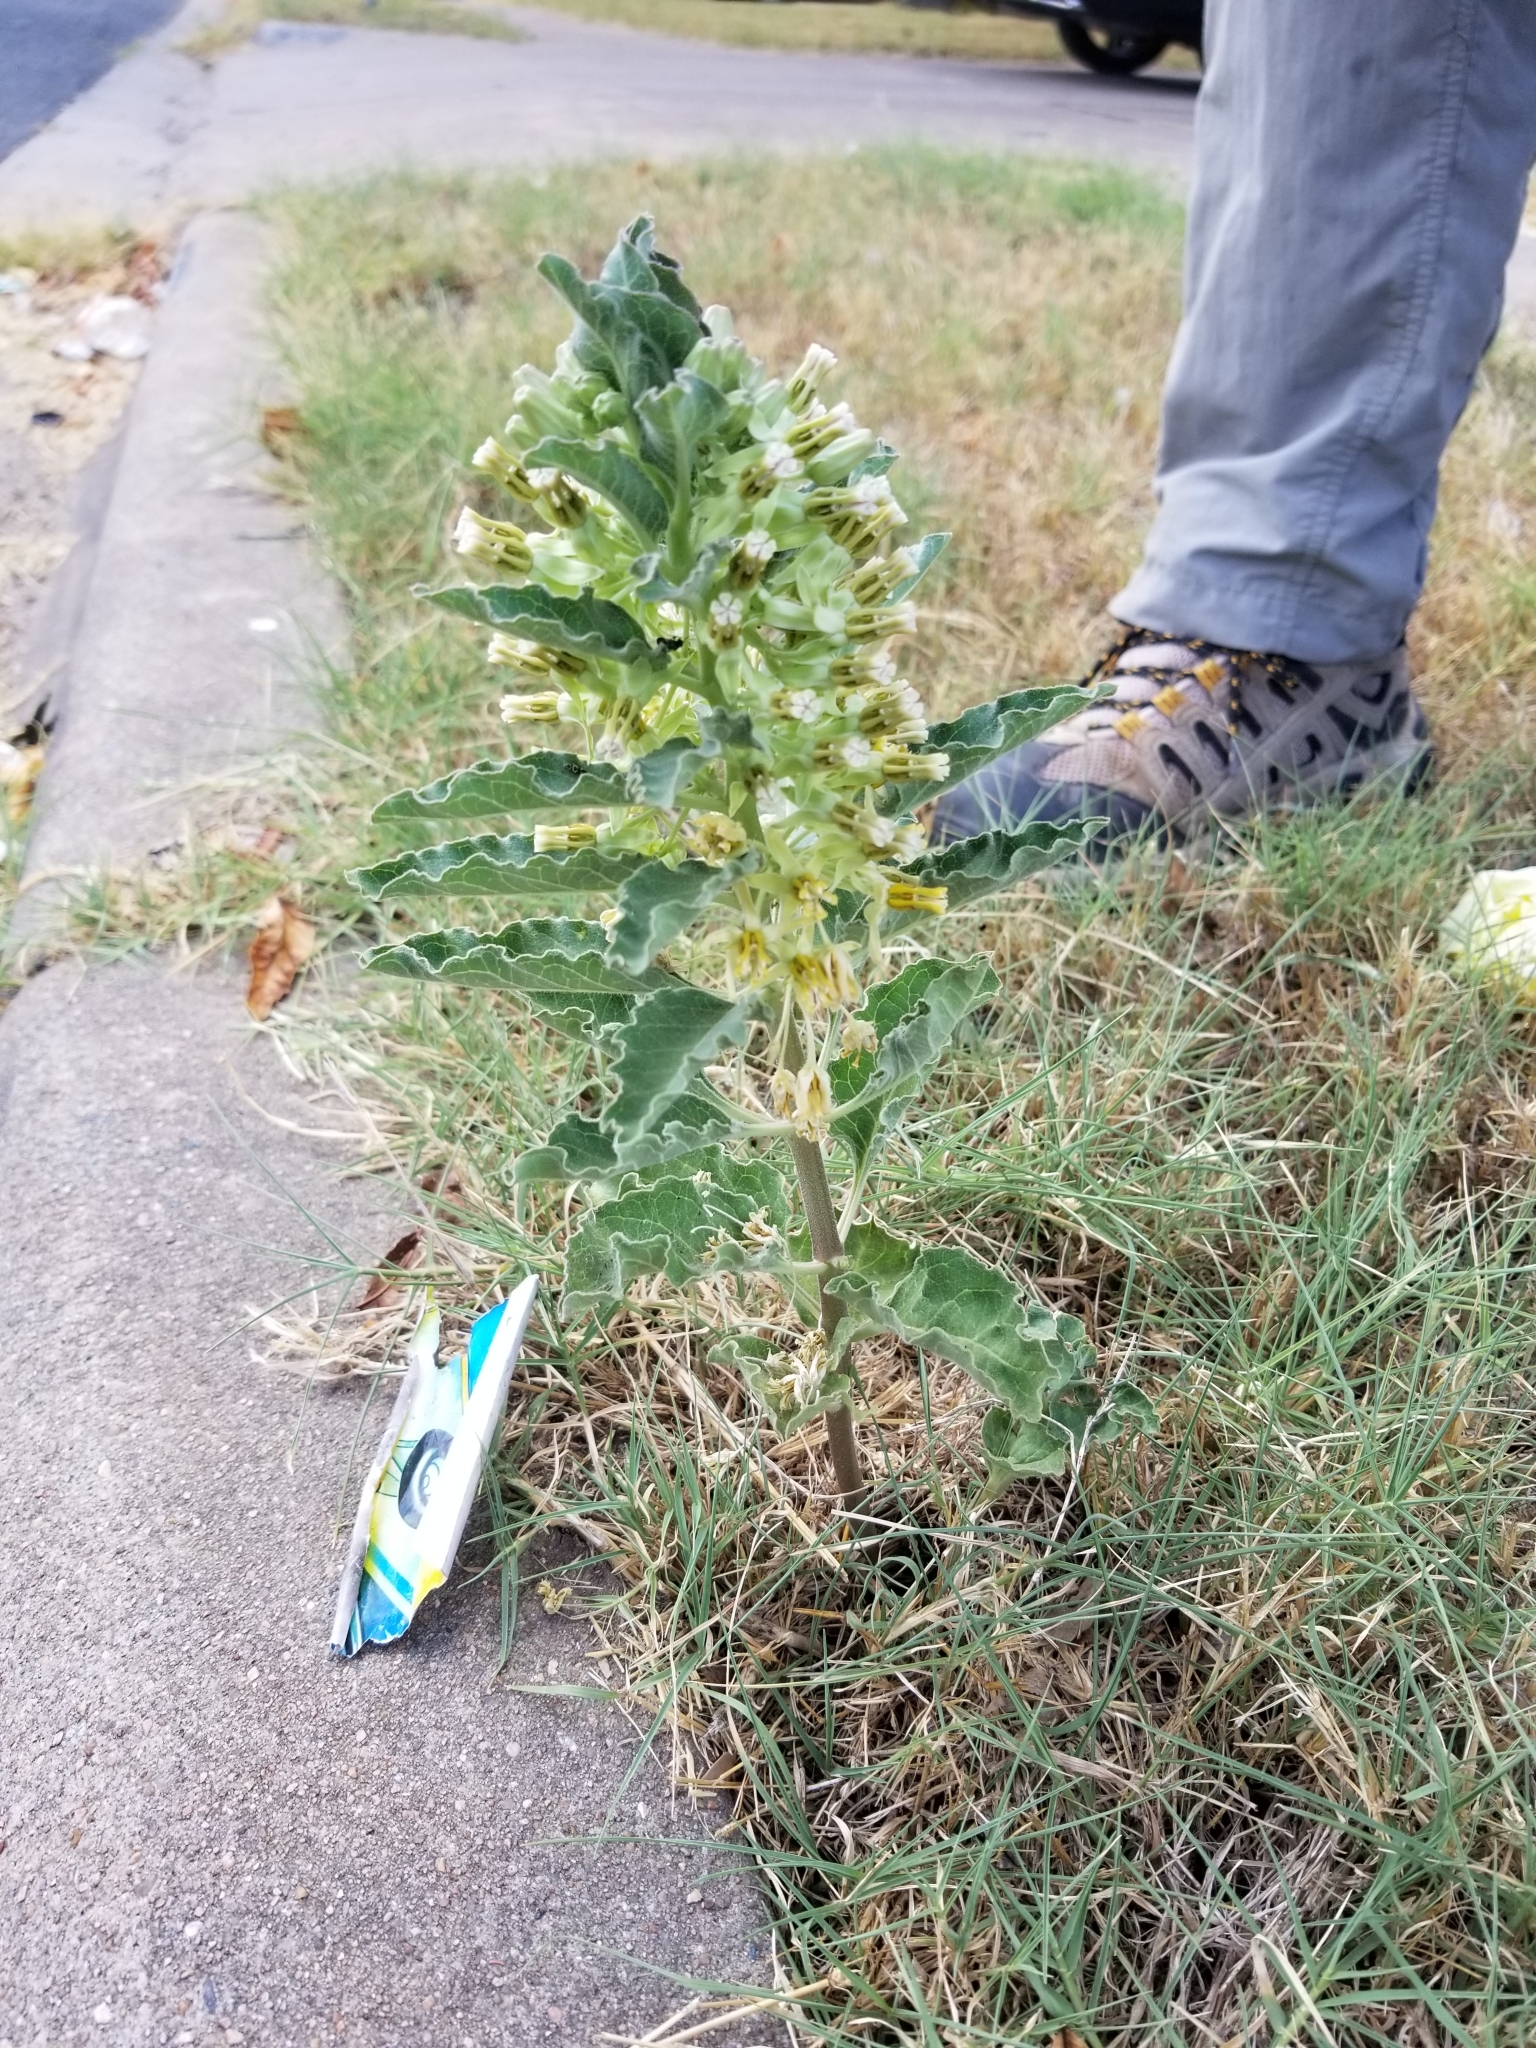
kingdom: Plantae
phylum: Tracheophyta
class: Magnoliopsida
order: Gentianales
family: Apocynaceae
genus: Asclepias
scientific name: Asclepias oenotheroides
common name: Zizotes milkweed
